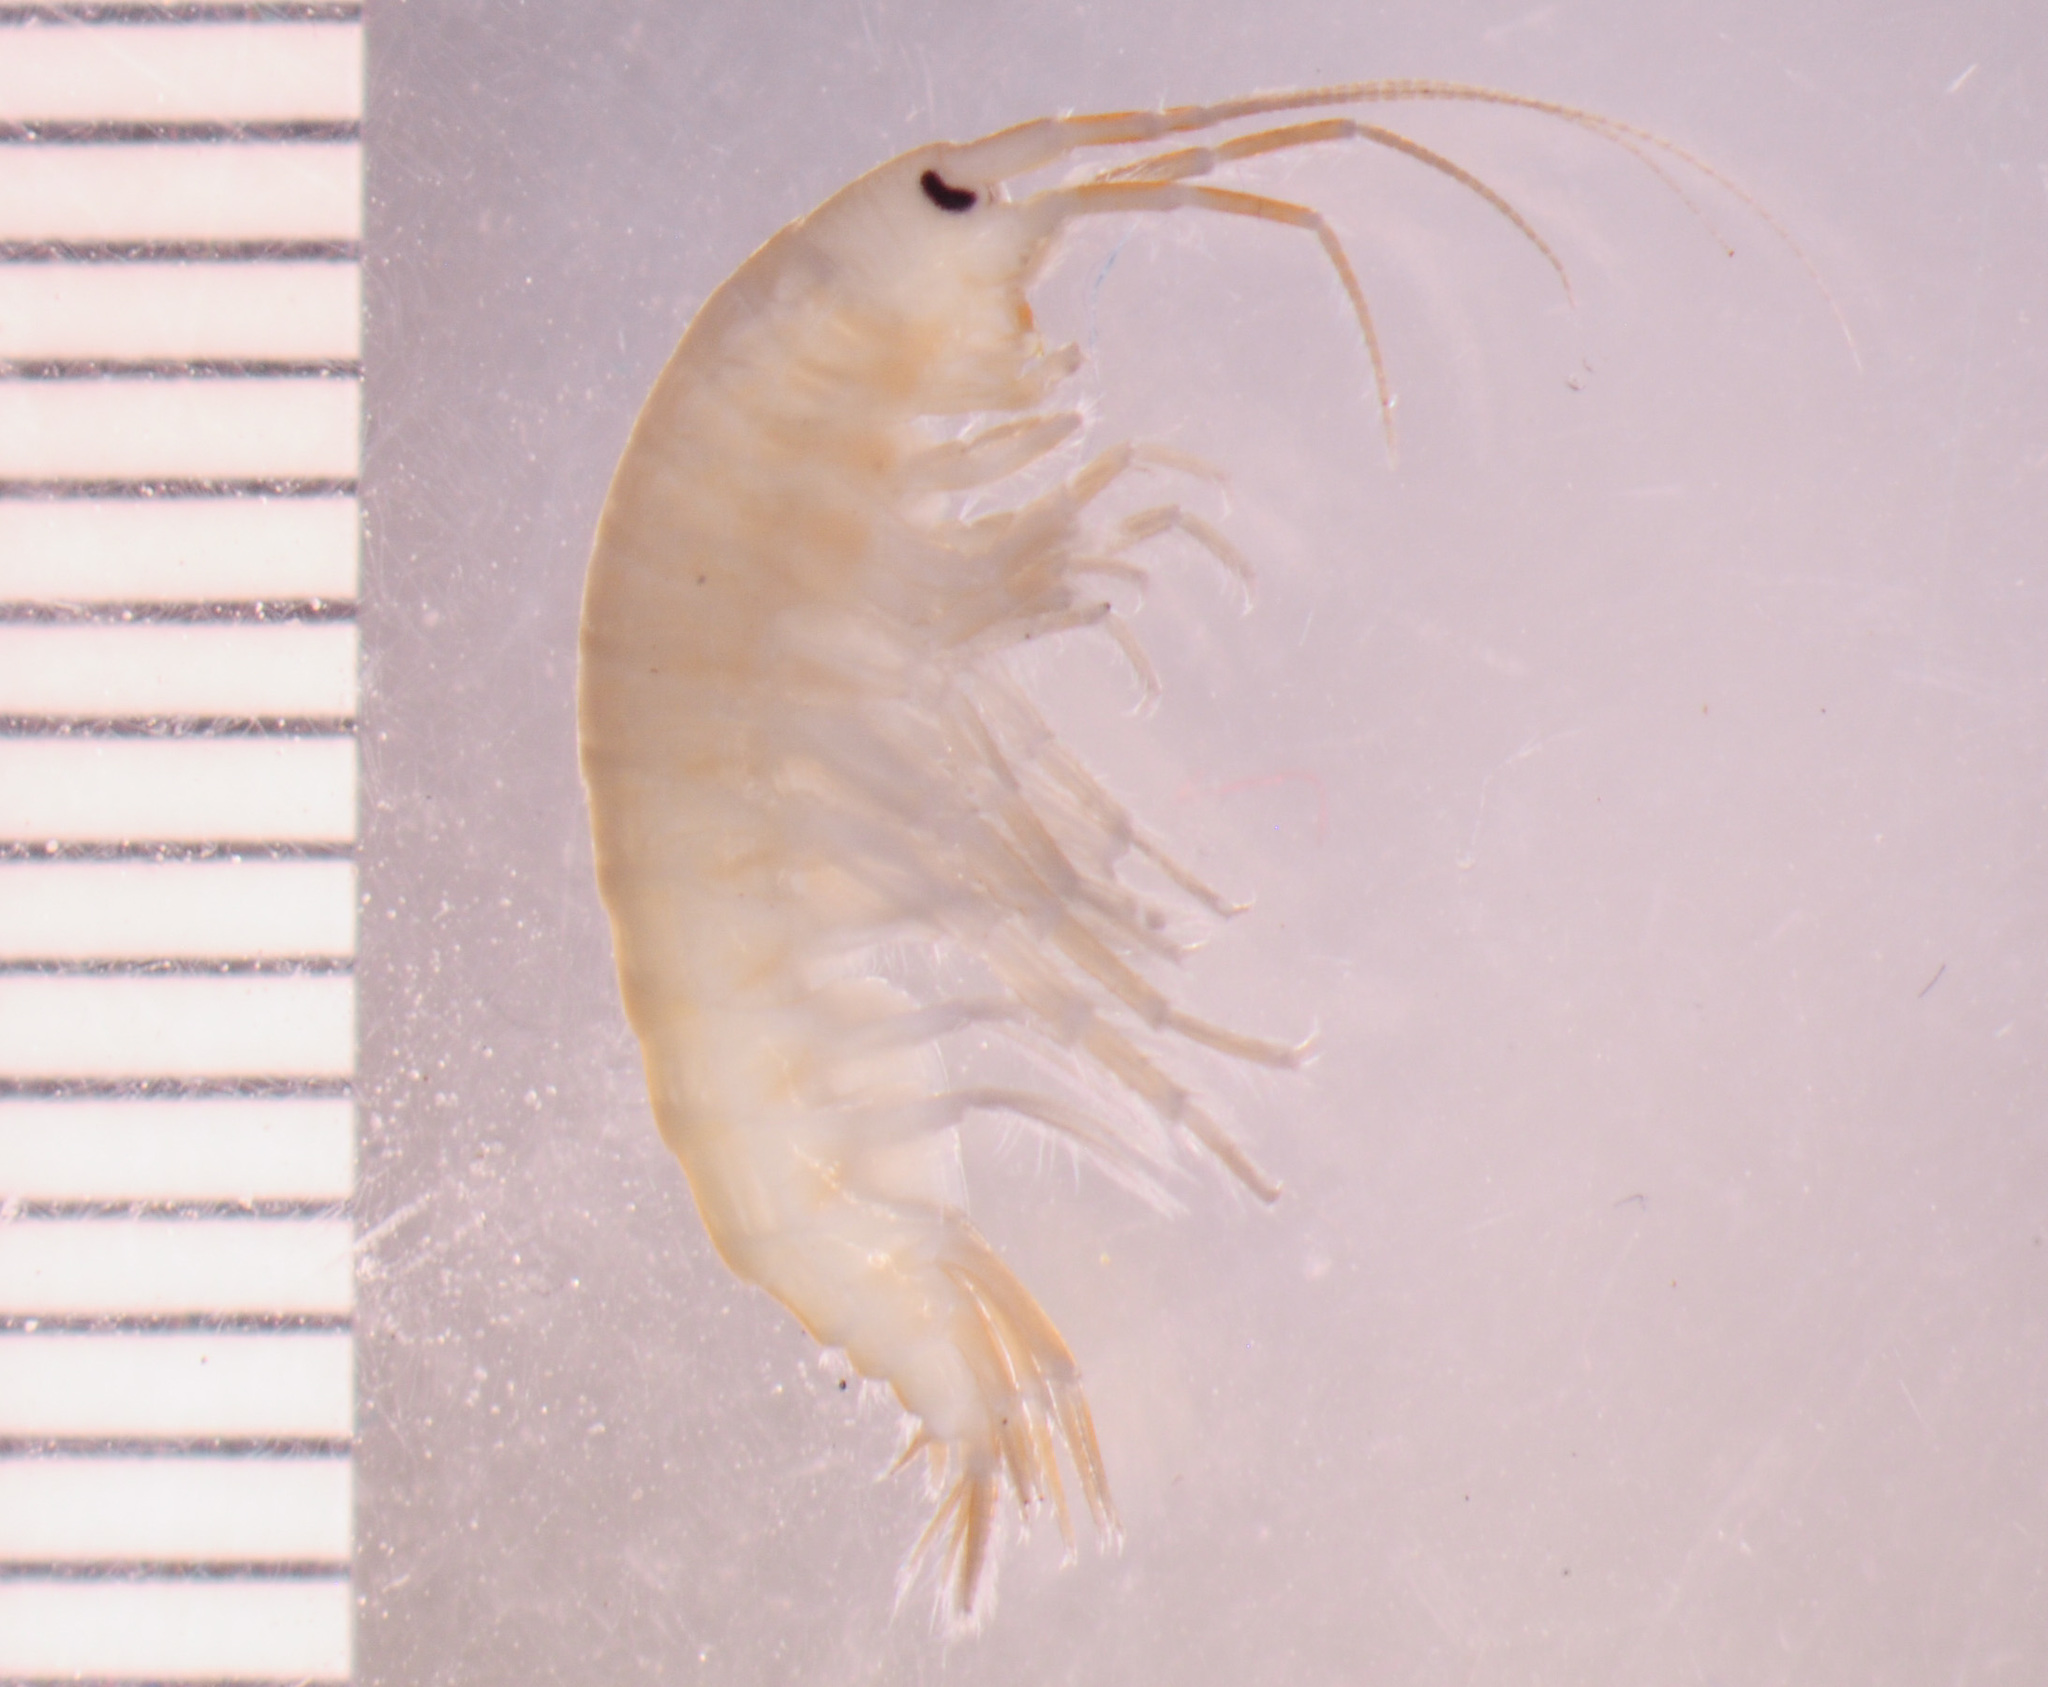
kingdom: Animalia
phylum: Arthropoda
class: Malacostraca
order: Amphipoda
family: Gammaridae
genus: Gammarus
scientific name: Gammarus pecos
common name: Pecos amphipod
